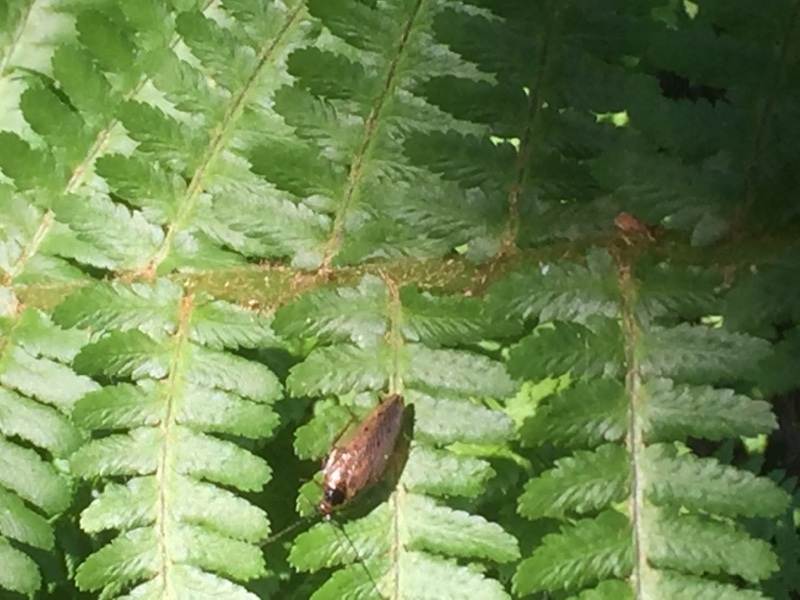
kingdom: Animalia
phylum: Arthropoda
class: Insecta
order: Blattodea
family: Ectobiidae
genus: Ectobius
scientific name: Ectobius lapponicus
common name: Dusky cockroach
